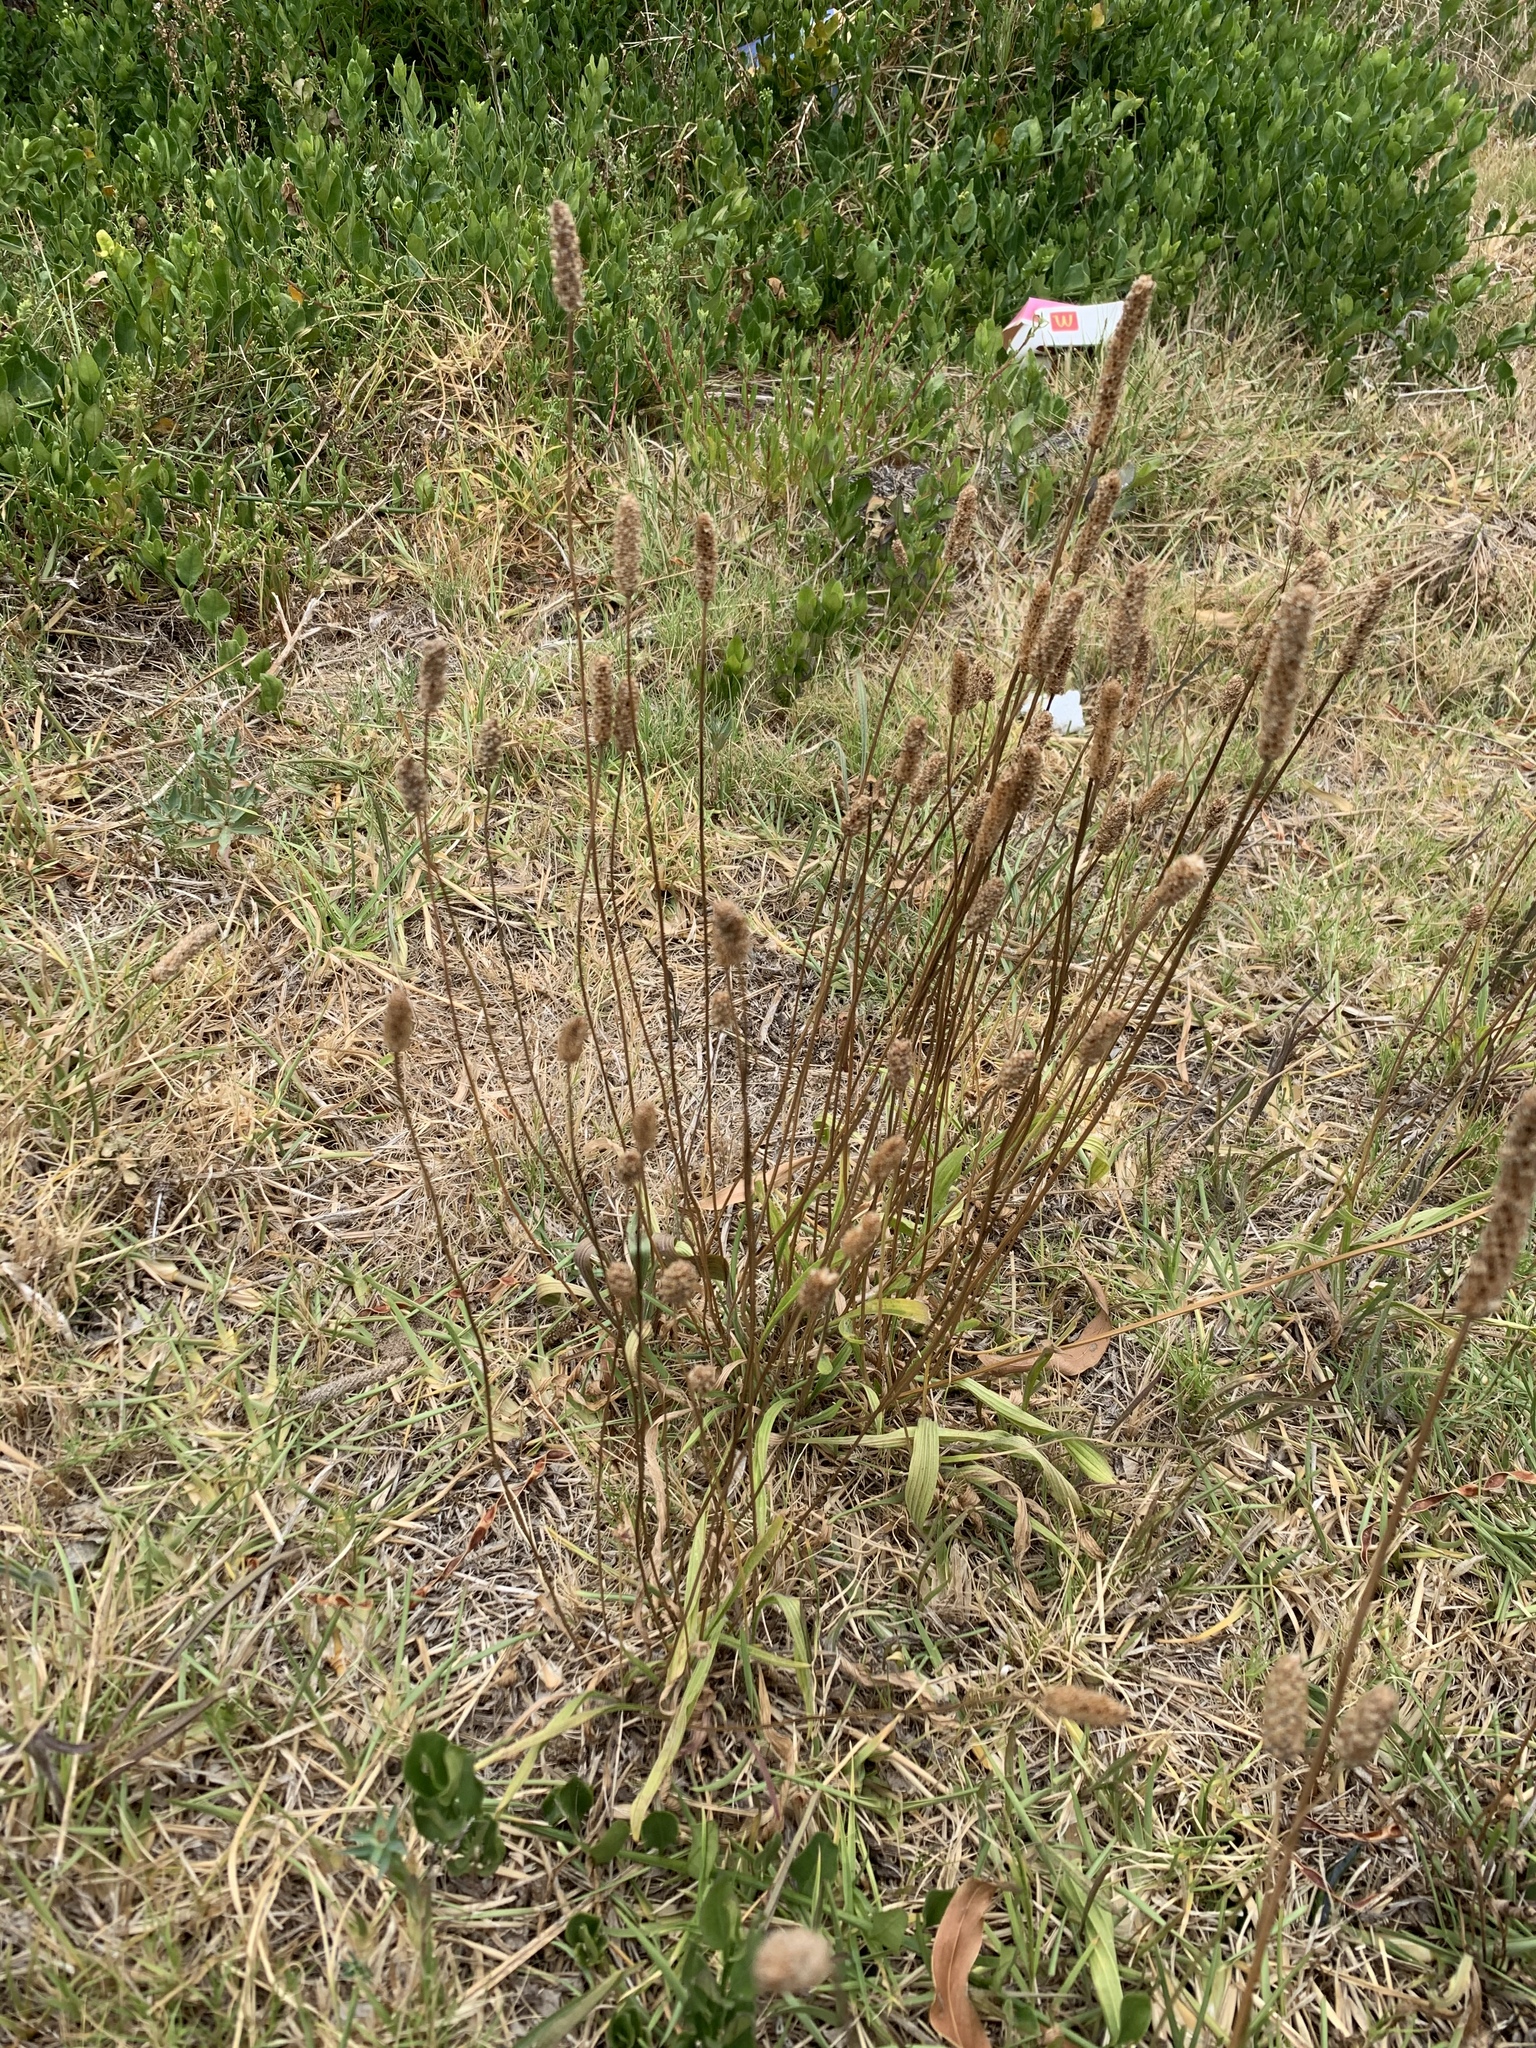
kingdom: Plantae
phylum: Tracheophyta
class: Magnoliopsida
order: Lamiales
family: Plantaginaceae
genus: Plantago
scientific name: Plantago lanceolata
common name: Ribwort plantain
